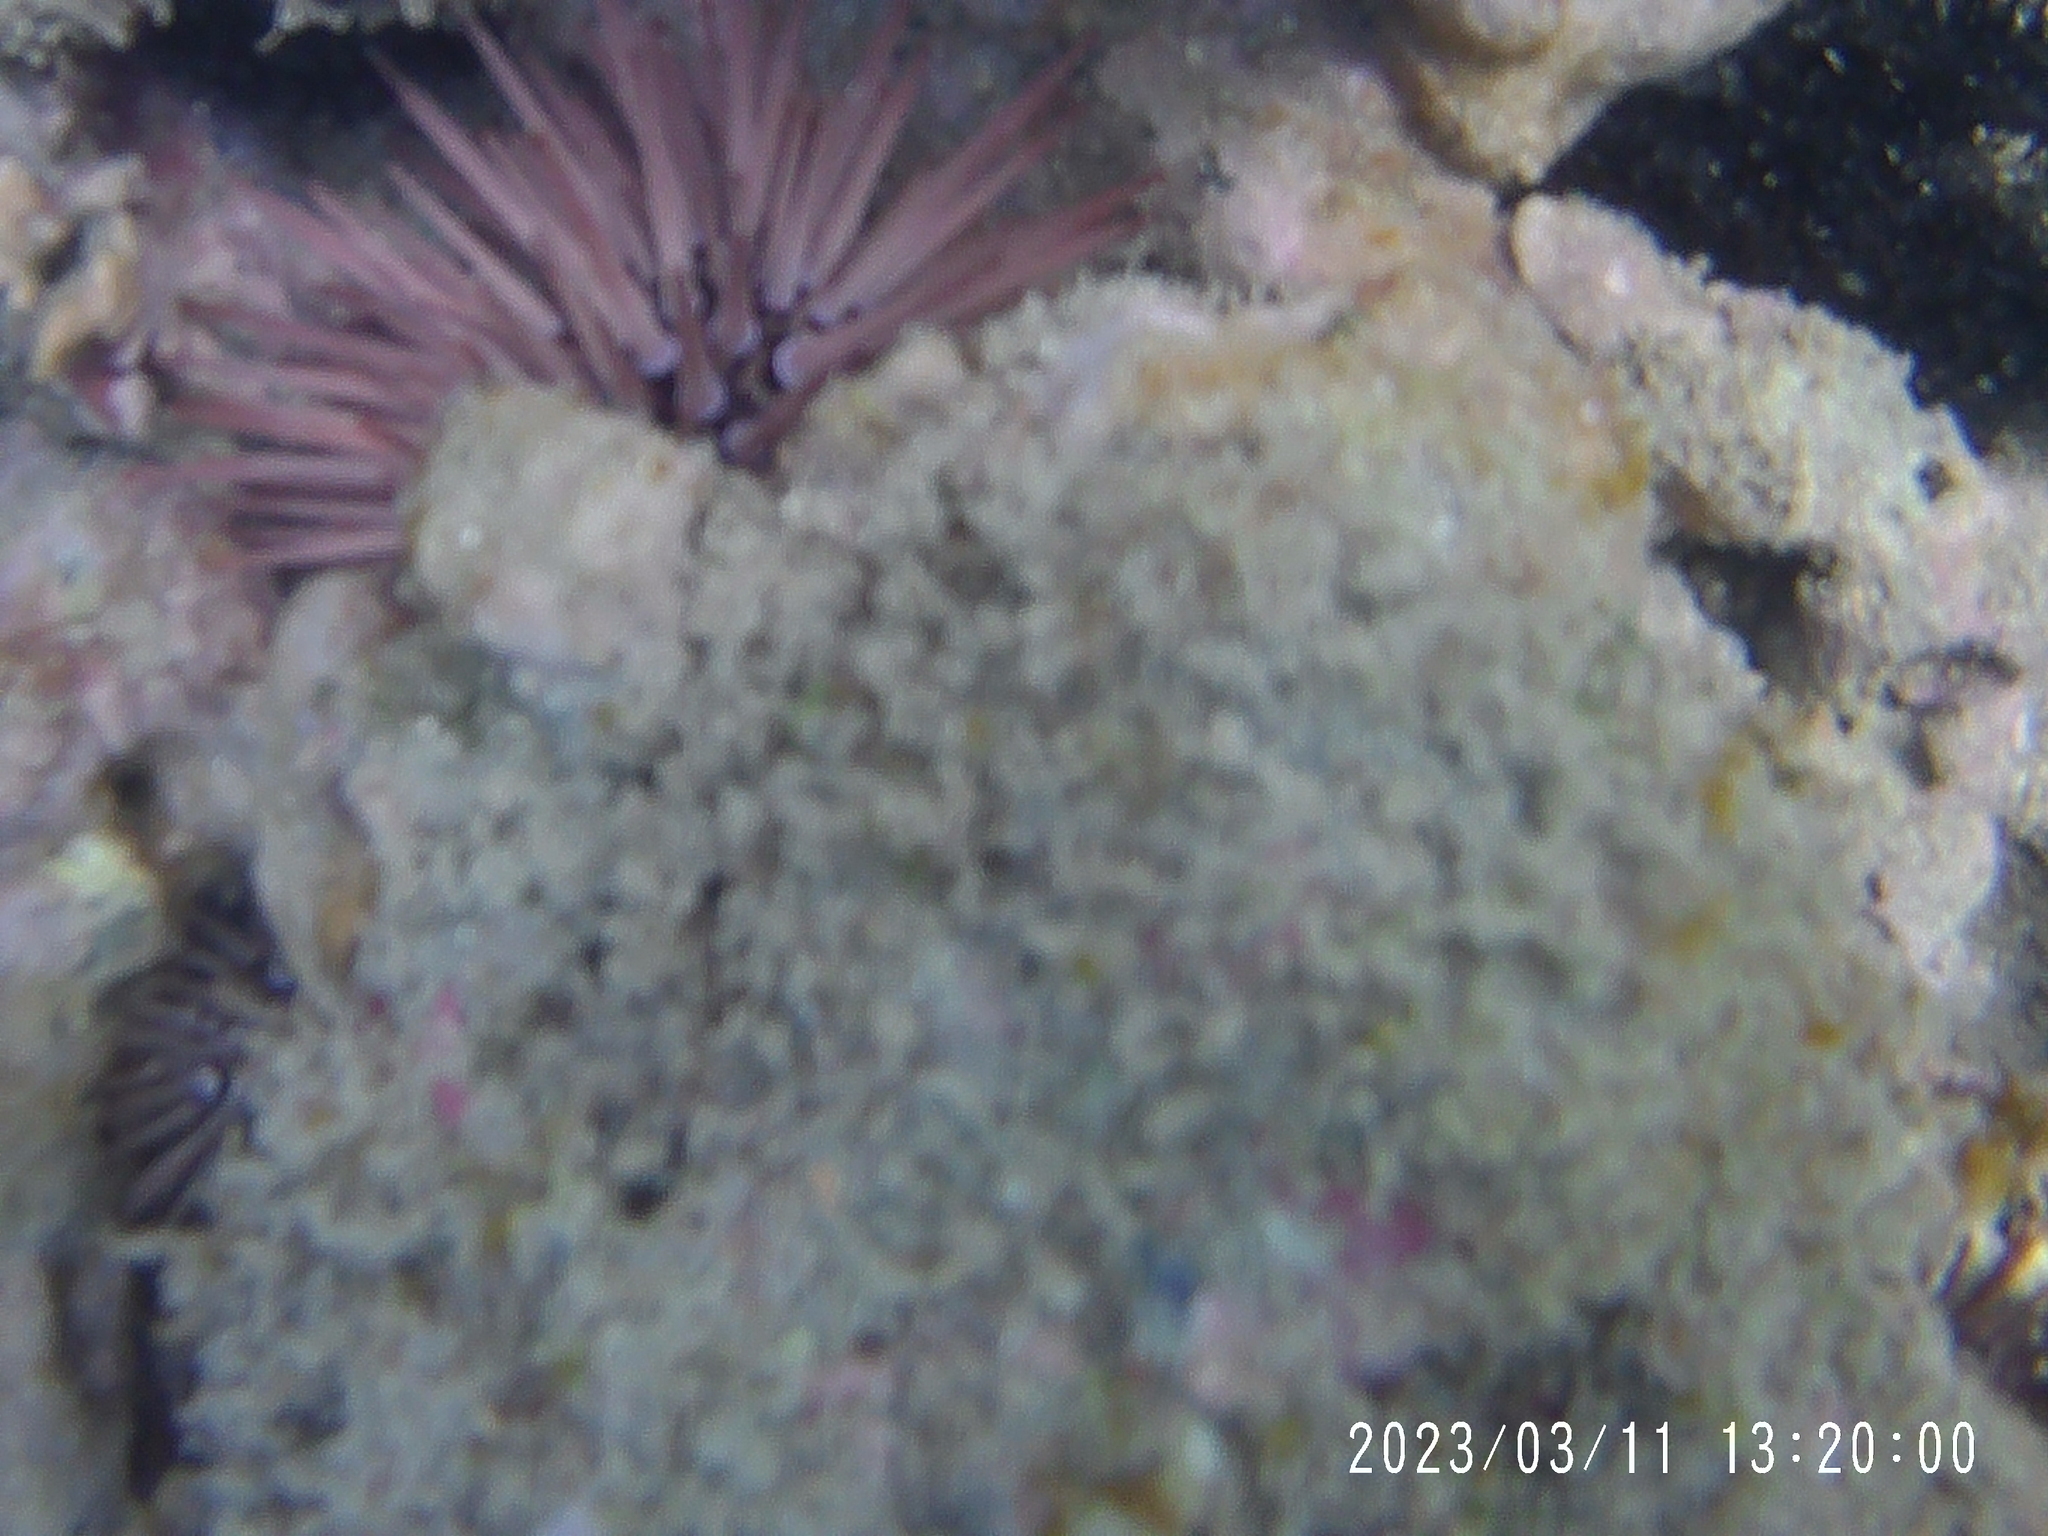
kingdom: Animalia
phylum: Echinodermata
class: Echinoidea
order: Camarodonta
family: Echinometridae
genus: Echinometra
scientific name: Echinometra mathaei
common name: Rock-boring urchin
